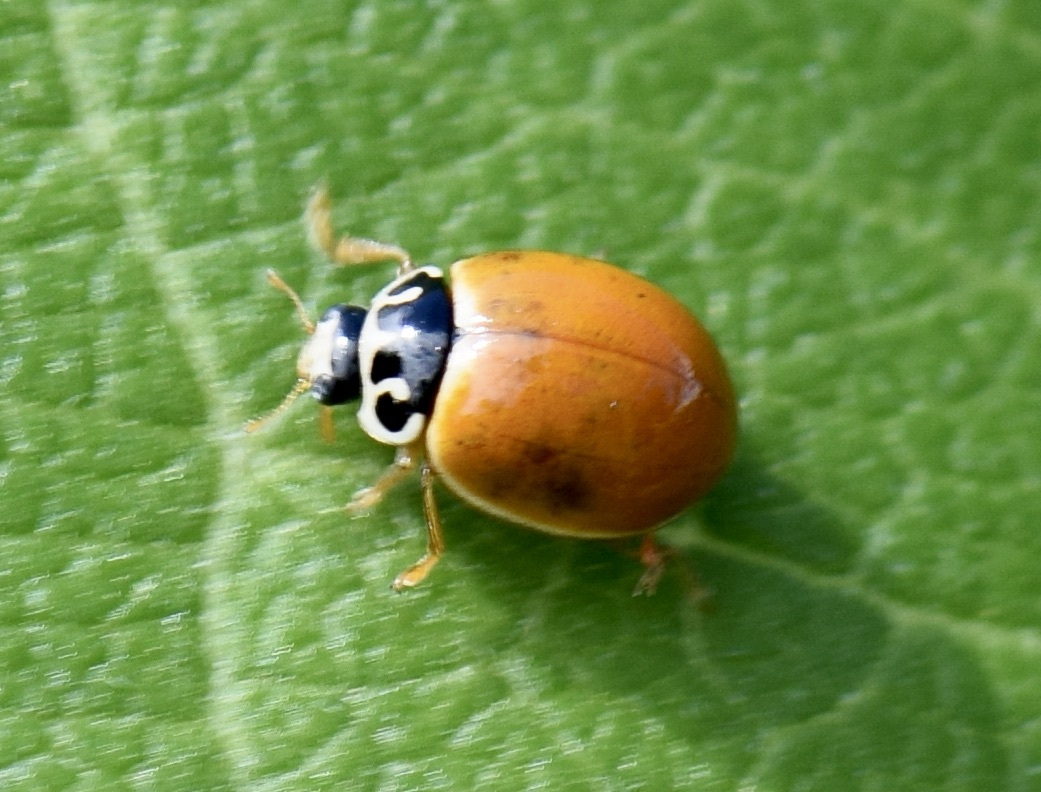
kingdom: Animalia
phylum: Arthropoda
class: Insecta
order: Coleoptera
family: Coccinellidae
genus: Cycloneda
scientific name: Cycloneda munda
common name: Polished lady beetle
